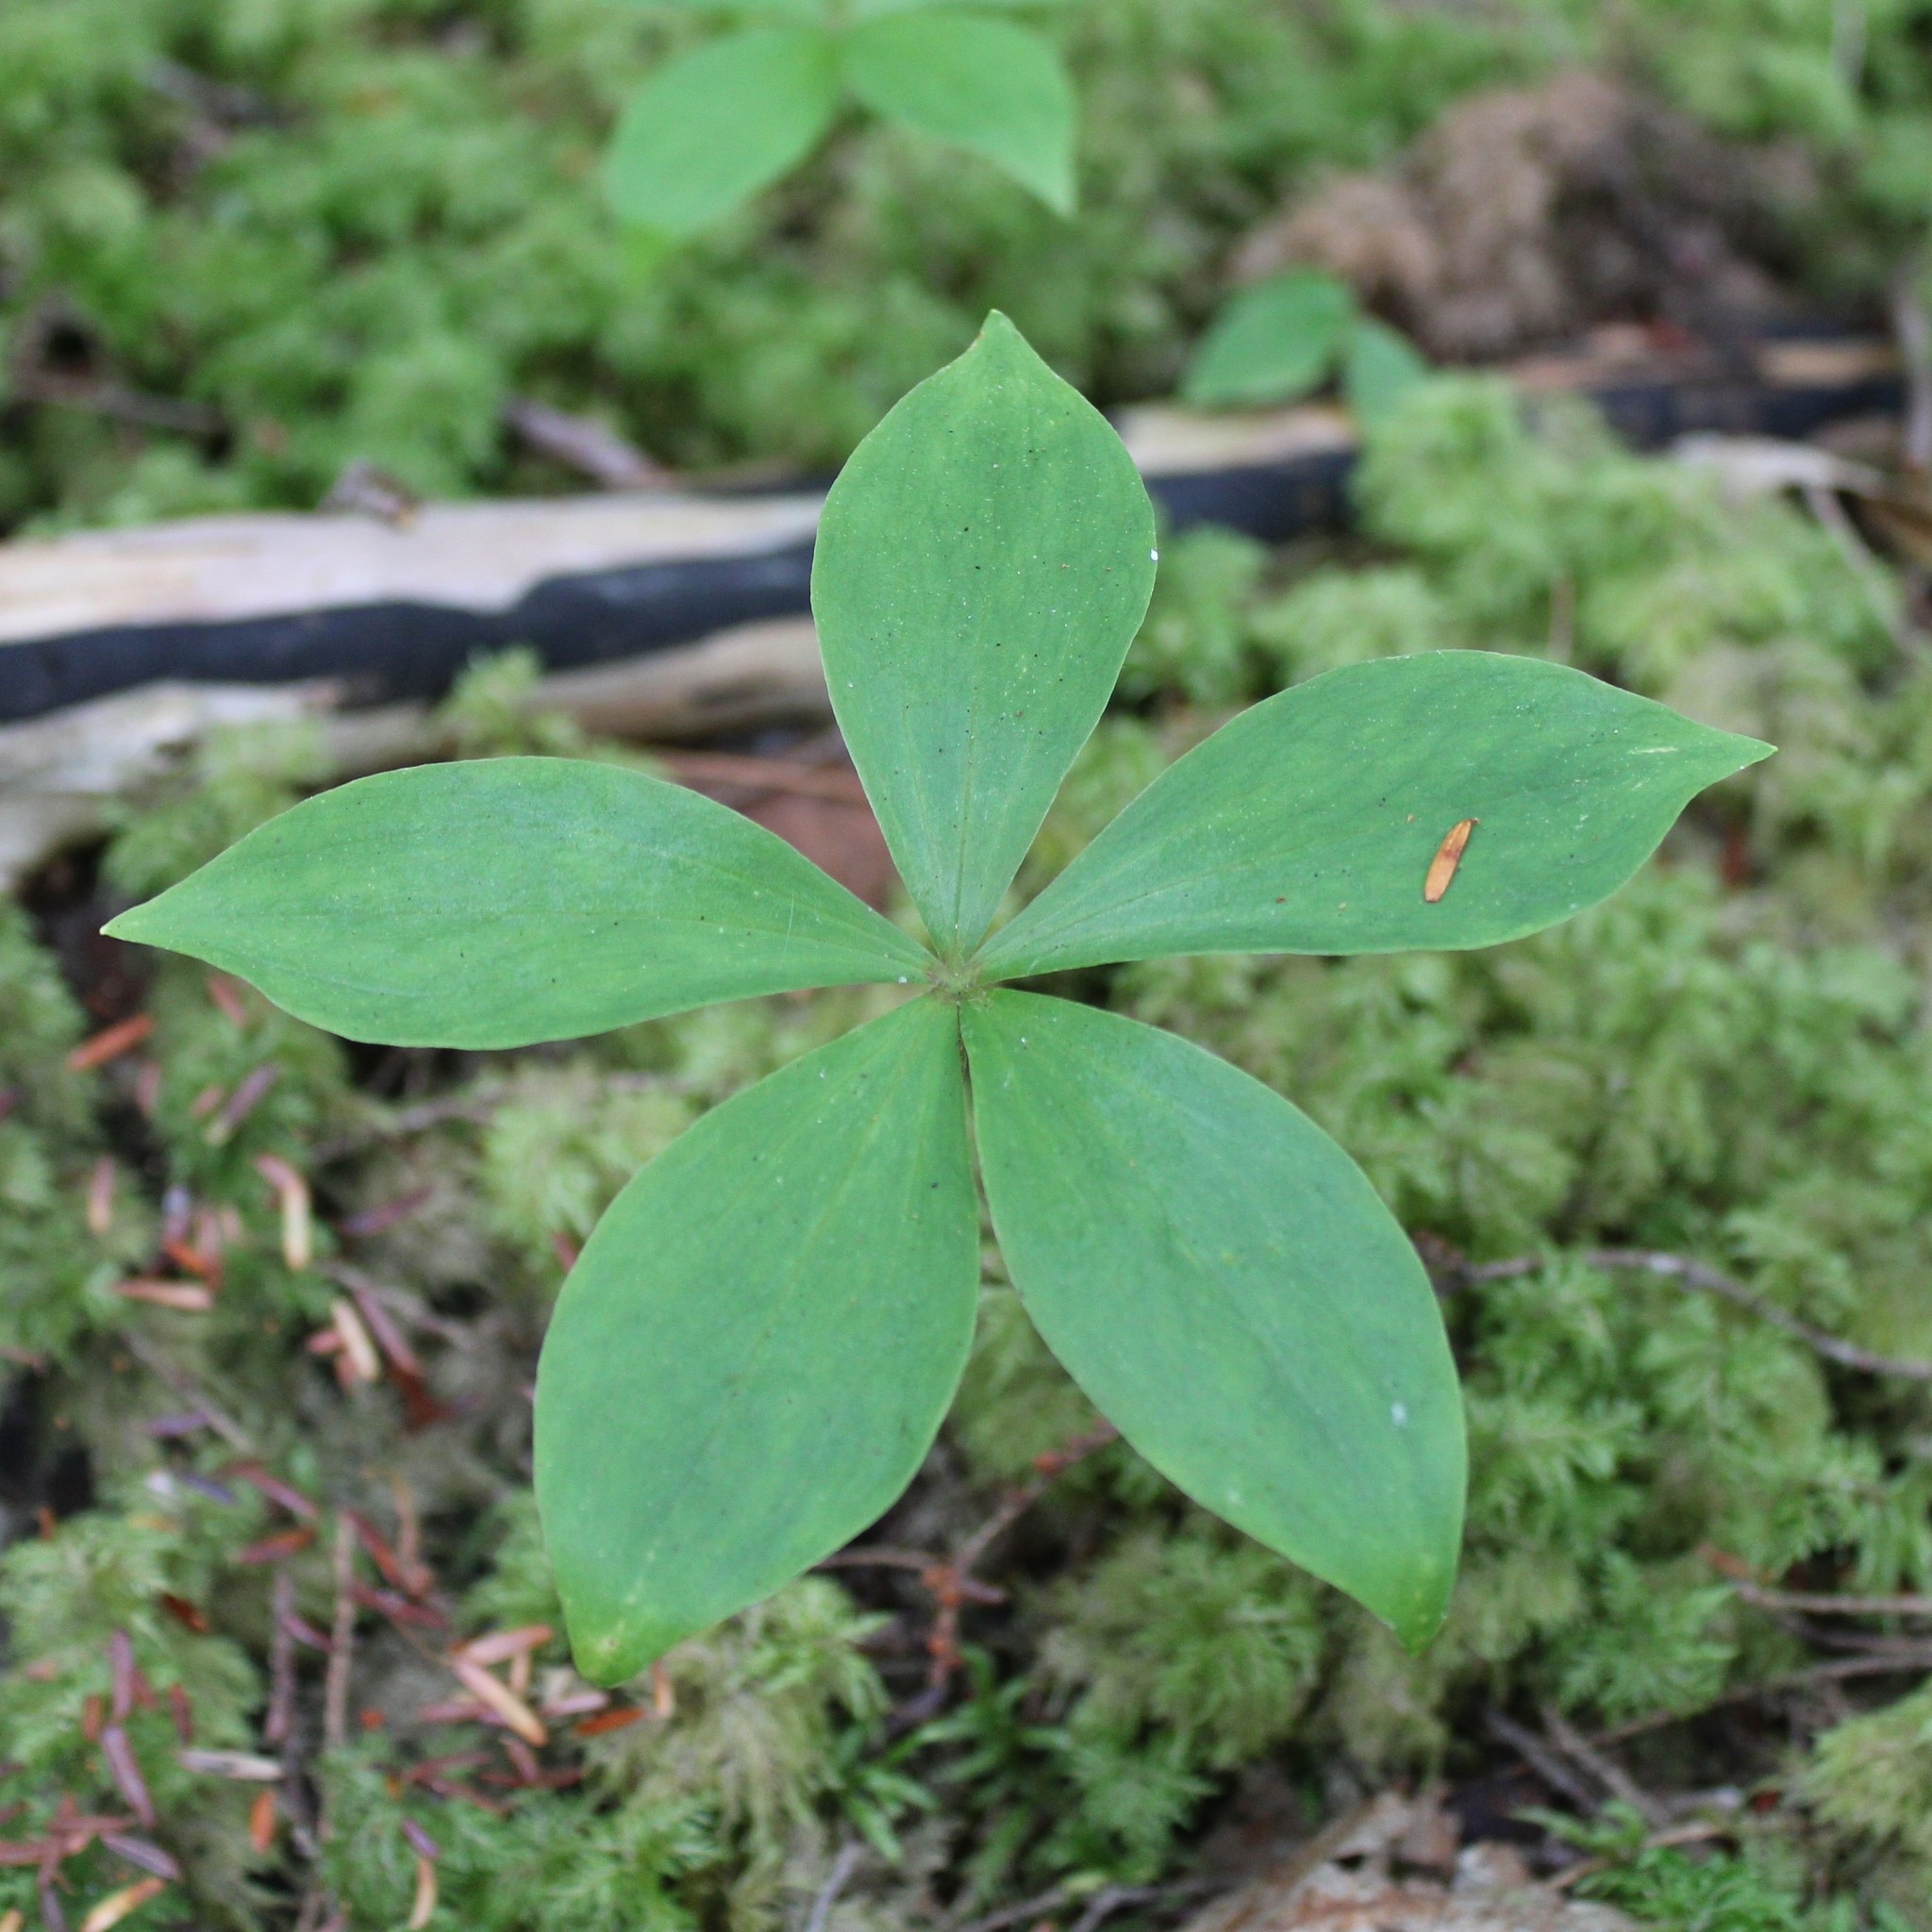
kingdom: Plantae
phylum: Tracheophyta
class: Liliopsida
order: Liliales
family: Liliaceae
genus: Medeola
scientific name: Medeola virginiana
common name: Indian cucumber-root
